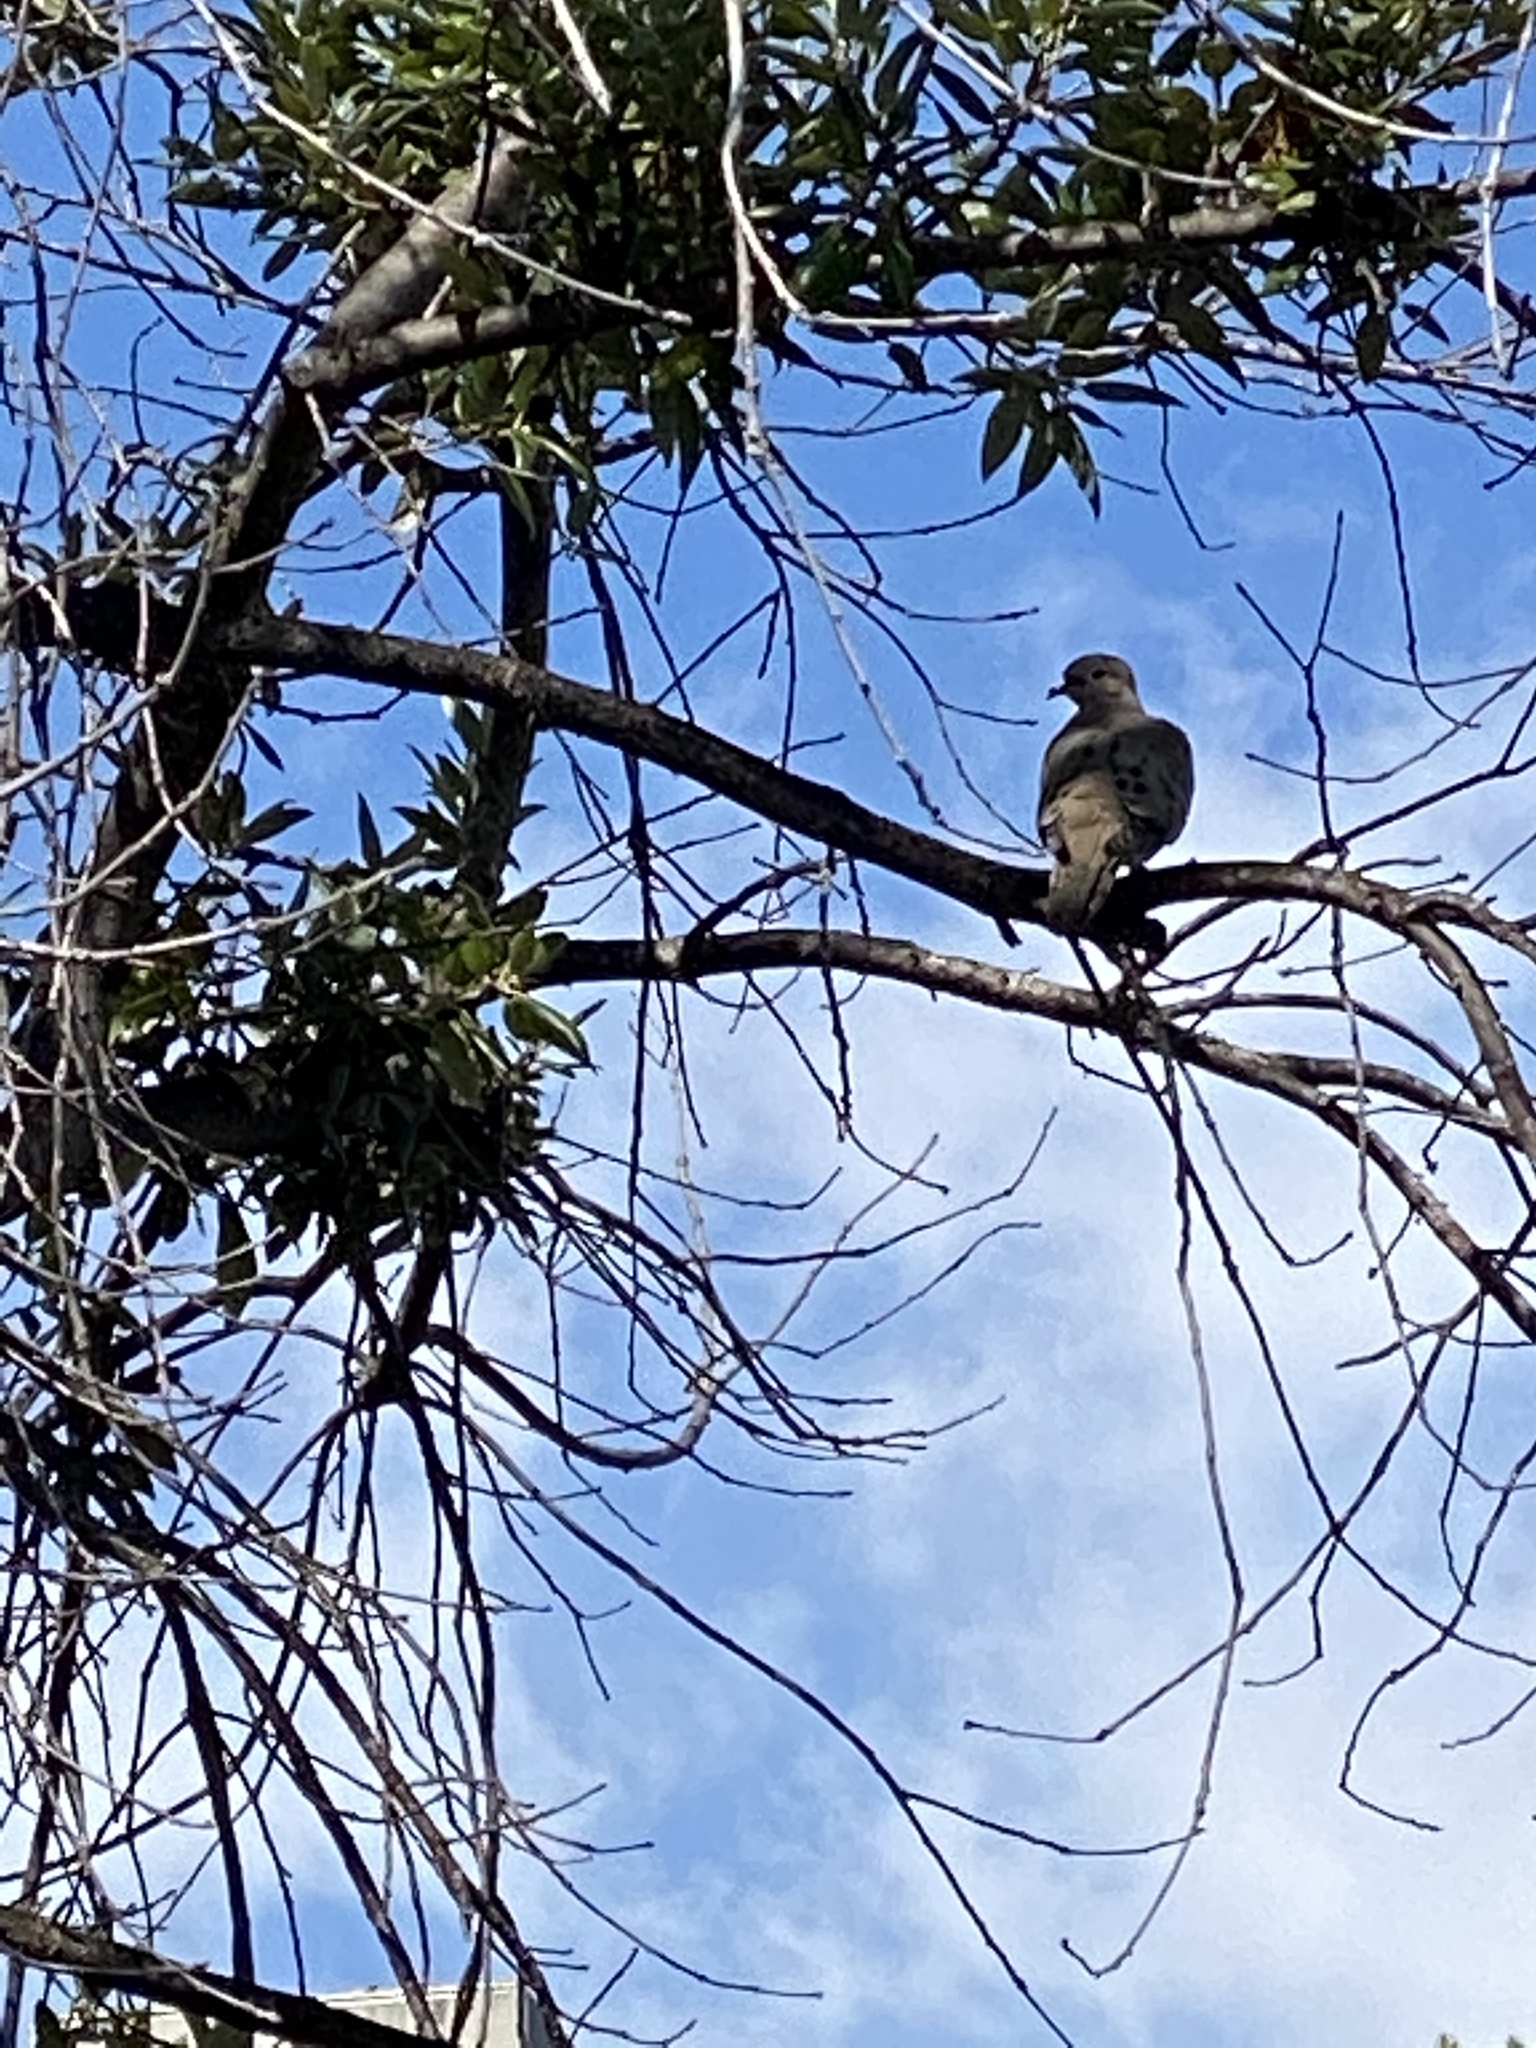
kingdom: Animalia
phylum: Chordata
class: Aves
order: Columbiformes
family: Columbidae
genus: Zenaida
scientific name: Zenaida macroura
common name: Mourning dove
